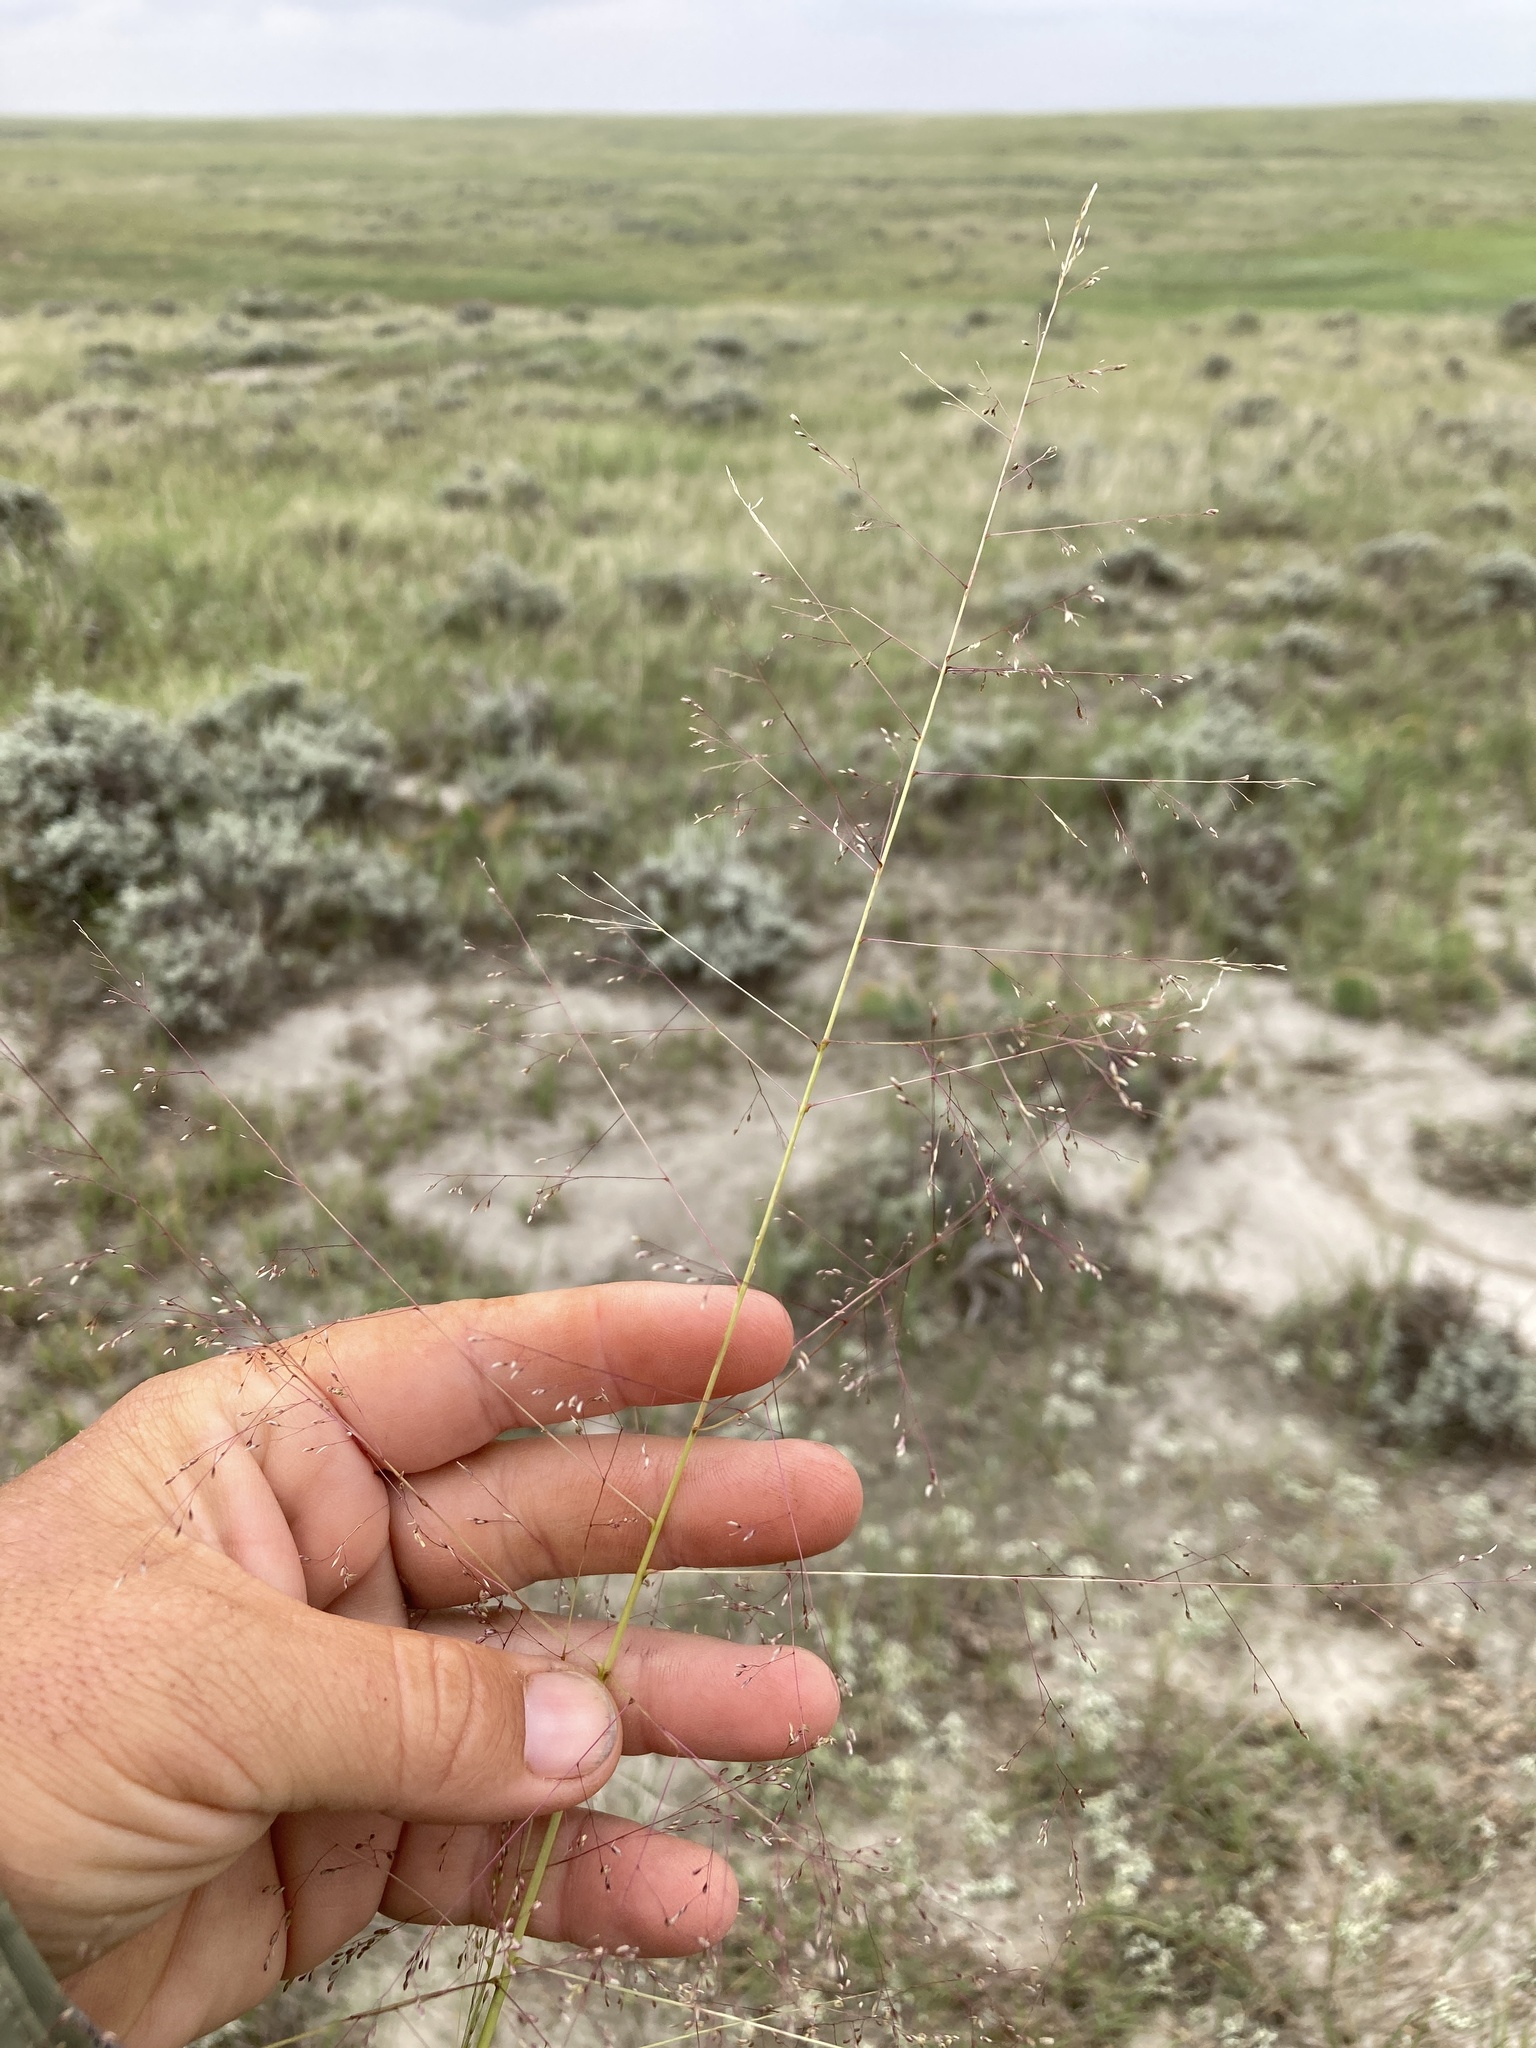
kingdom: Plantae
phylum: Tracheophyta
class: Liliopsida
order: Poales
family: Poaceae
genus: Sporobolus
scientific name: Sporobolus airoides
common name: Alkali sacaton
